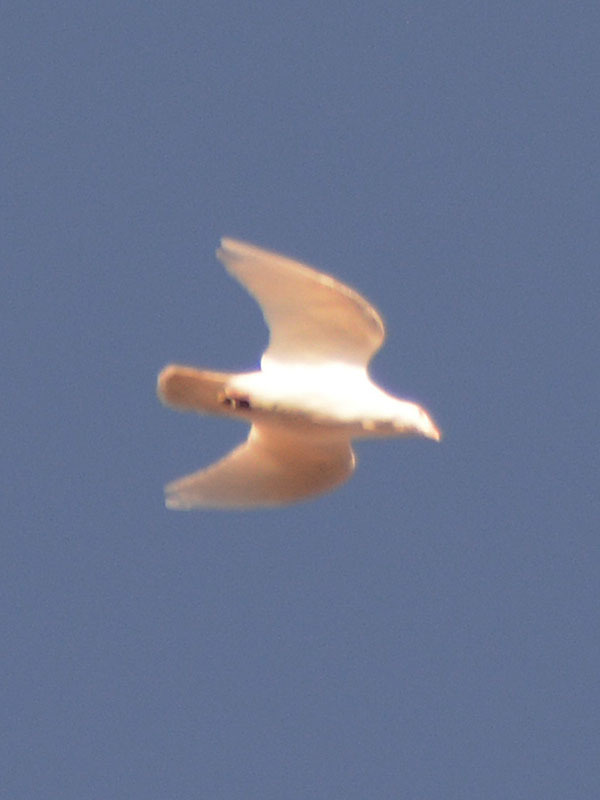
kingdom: Animalia
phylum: Chordata
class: Aves
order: Columbiformes
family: Columbidae
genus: Columba
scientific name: Columba livia
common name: Rock pigeon
